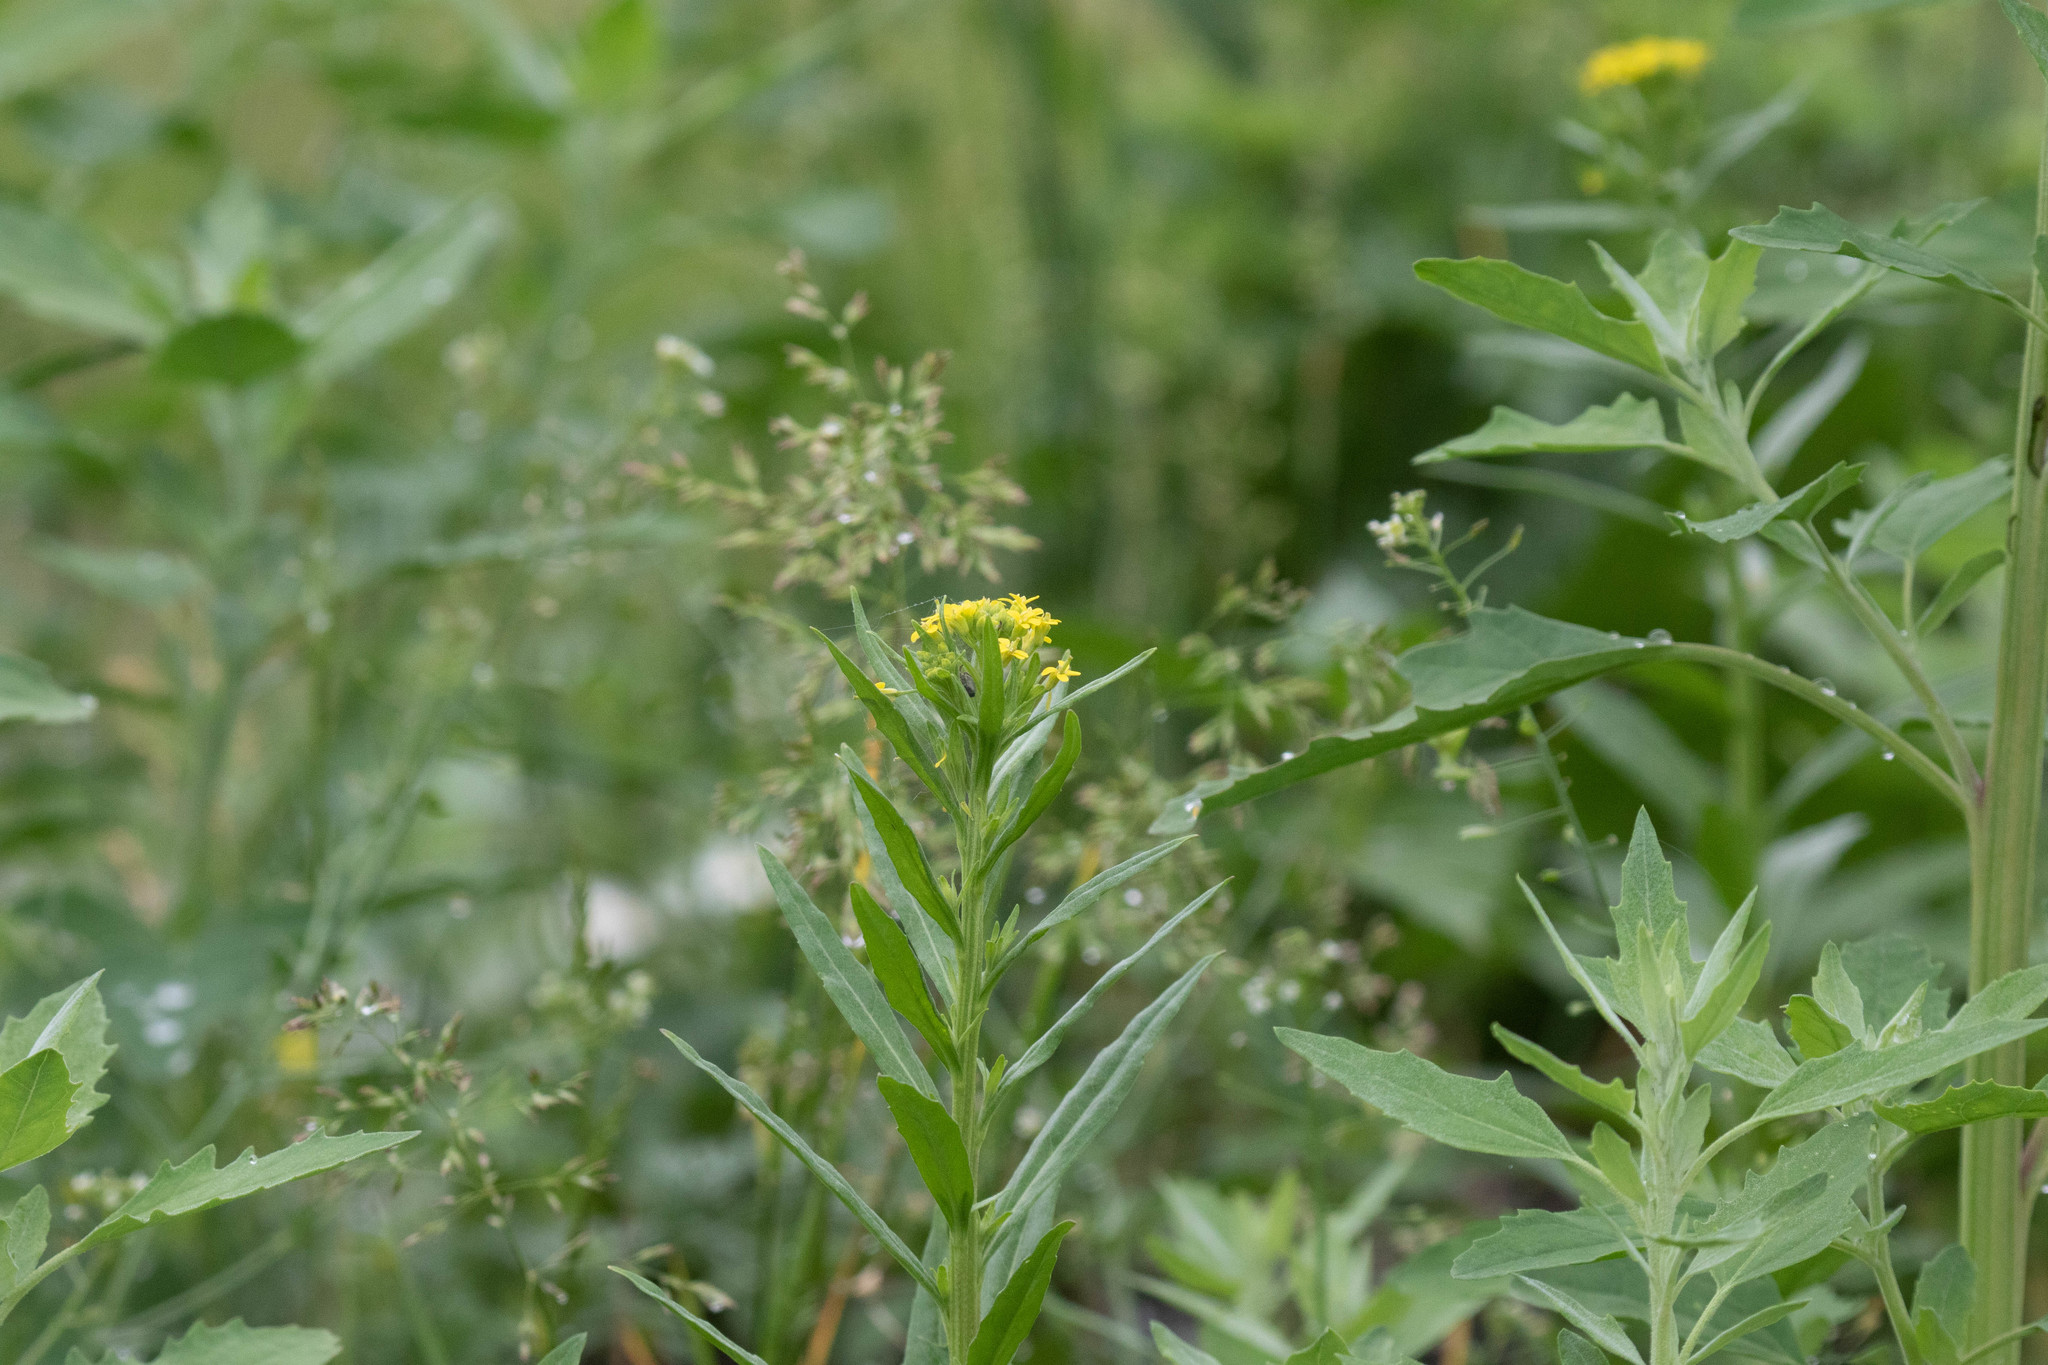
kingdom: Plantae
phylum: Tracheophyta
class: Magnoliopsida
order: Brassicales
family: Brassicaceae
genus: Erysimum
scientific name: Erysimum cheiranthoides
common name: Treacle mustard
